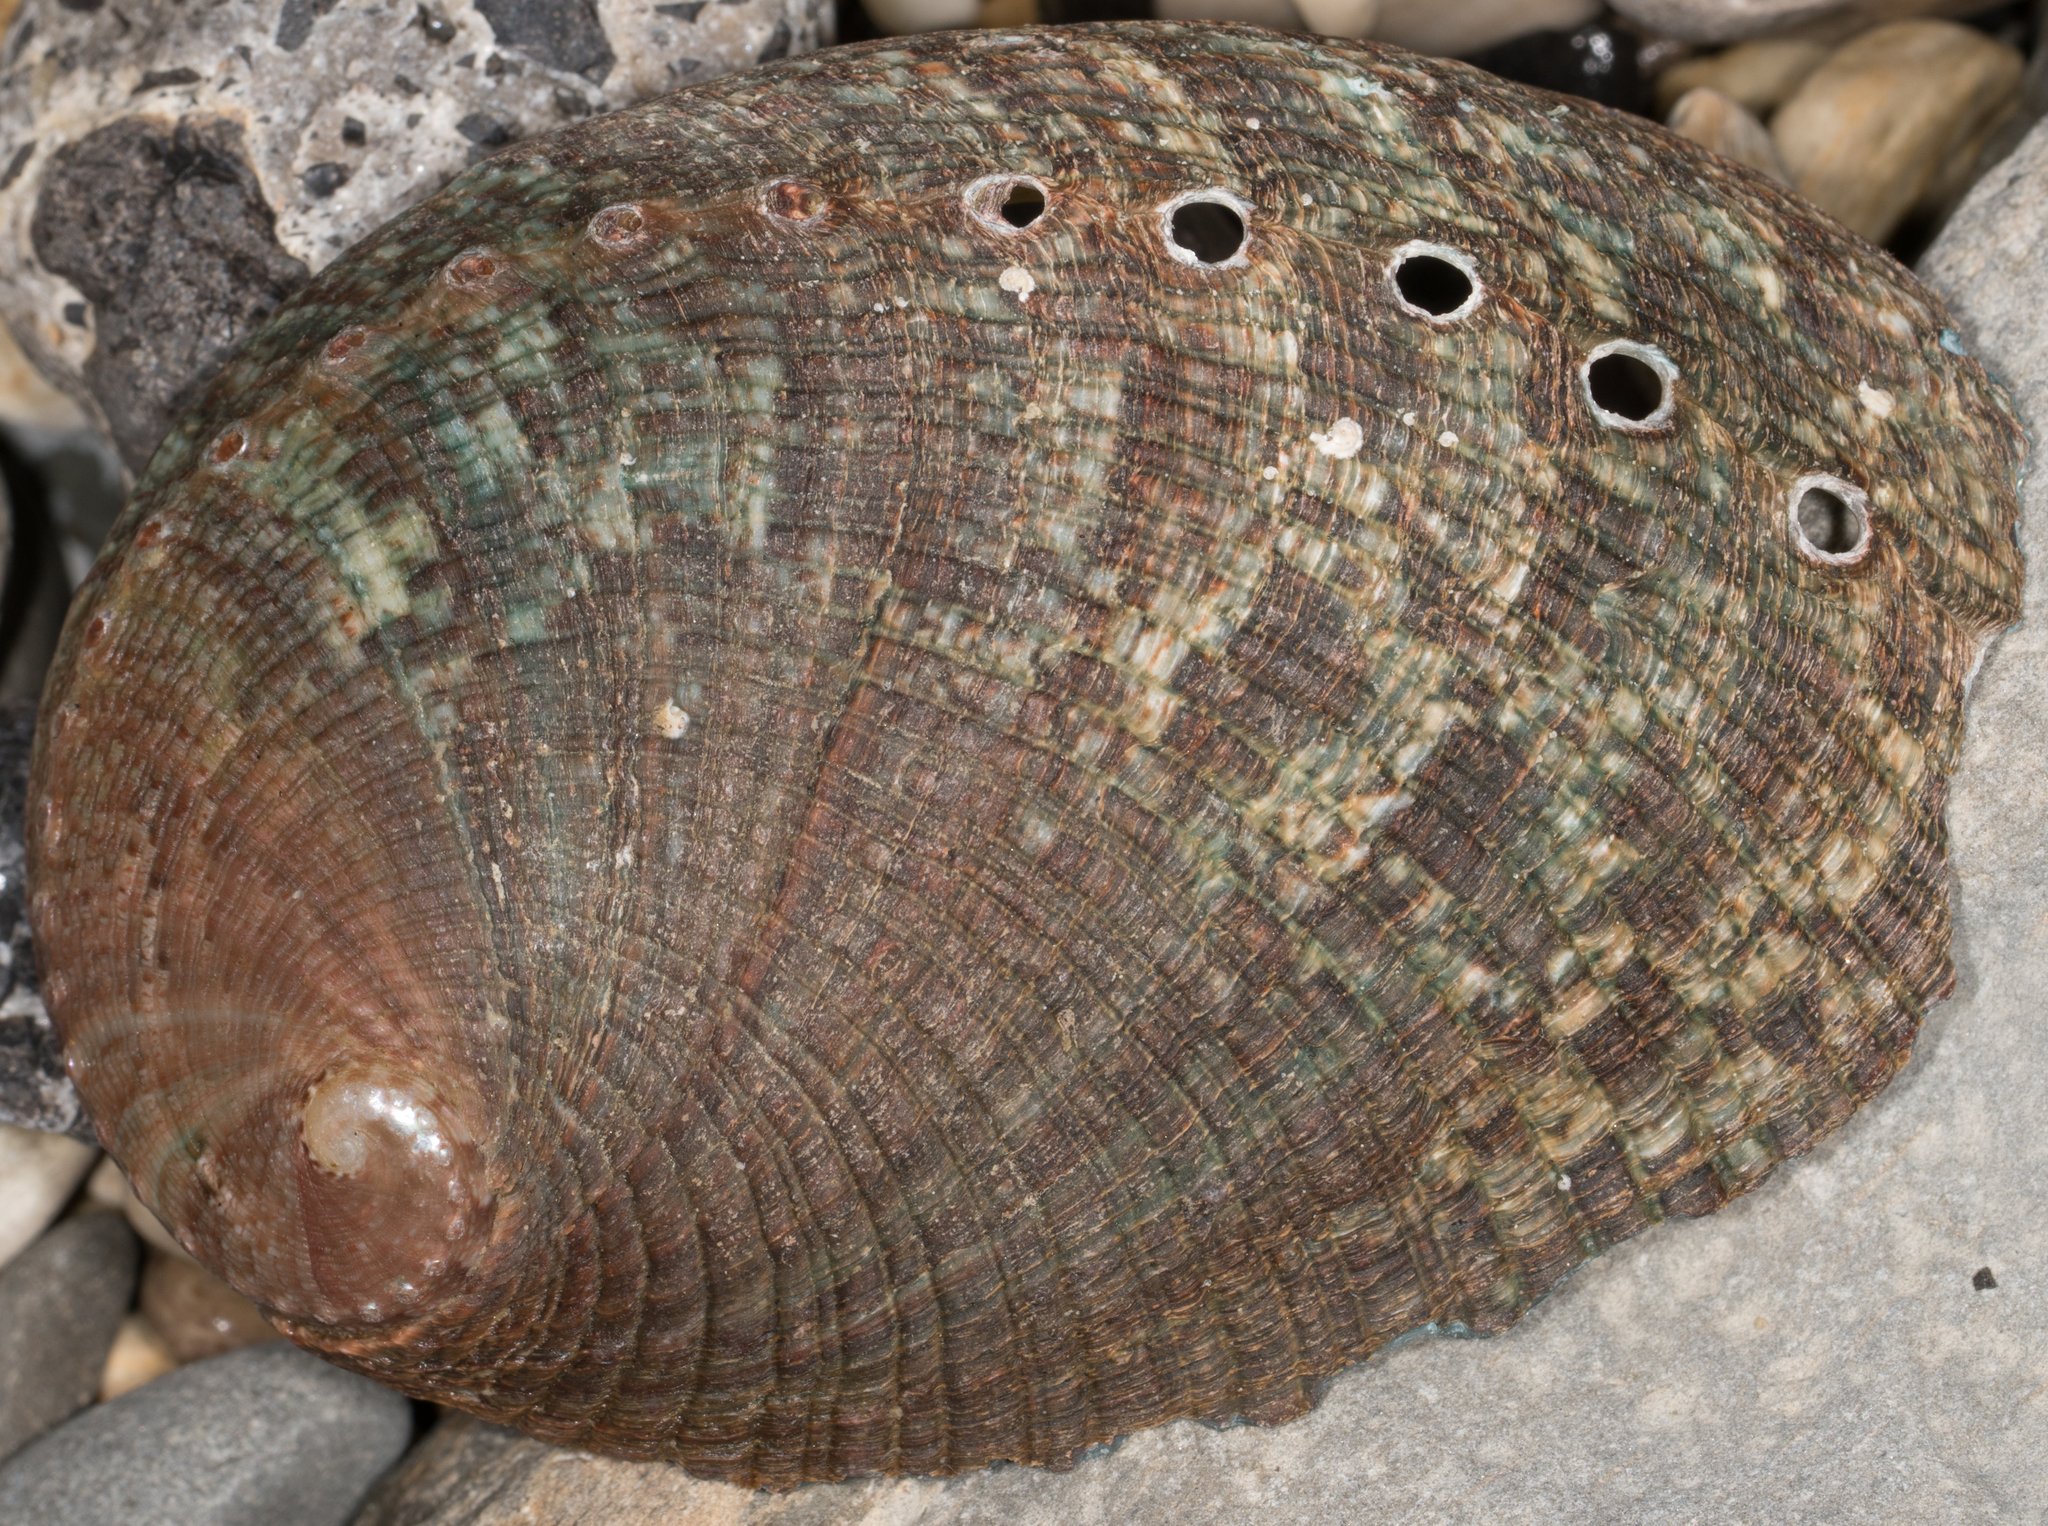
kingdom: Animalia
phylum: Mollusca
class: Gastropoda
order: Lepetellida
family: Haliotidae
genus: Haliotis
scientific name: Haliotis fulgens
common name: Green abalone
